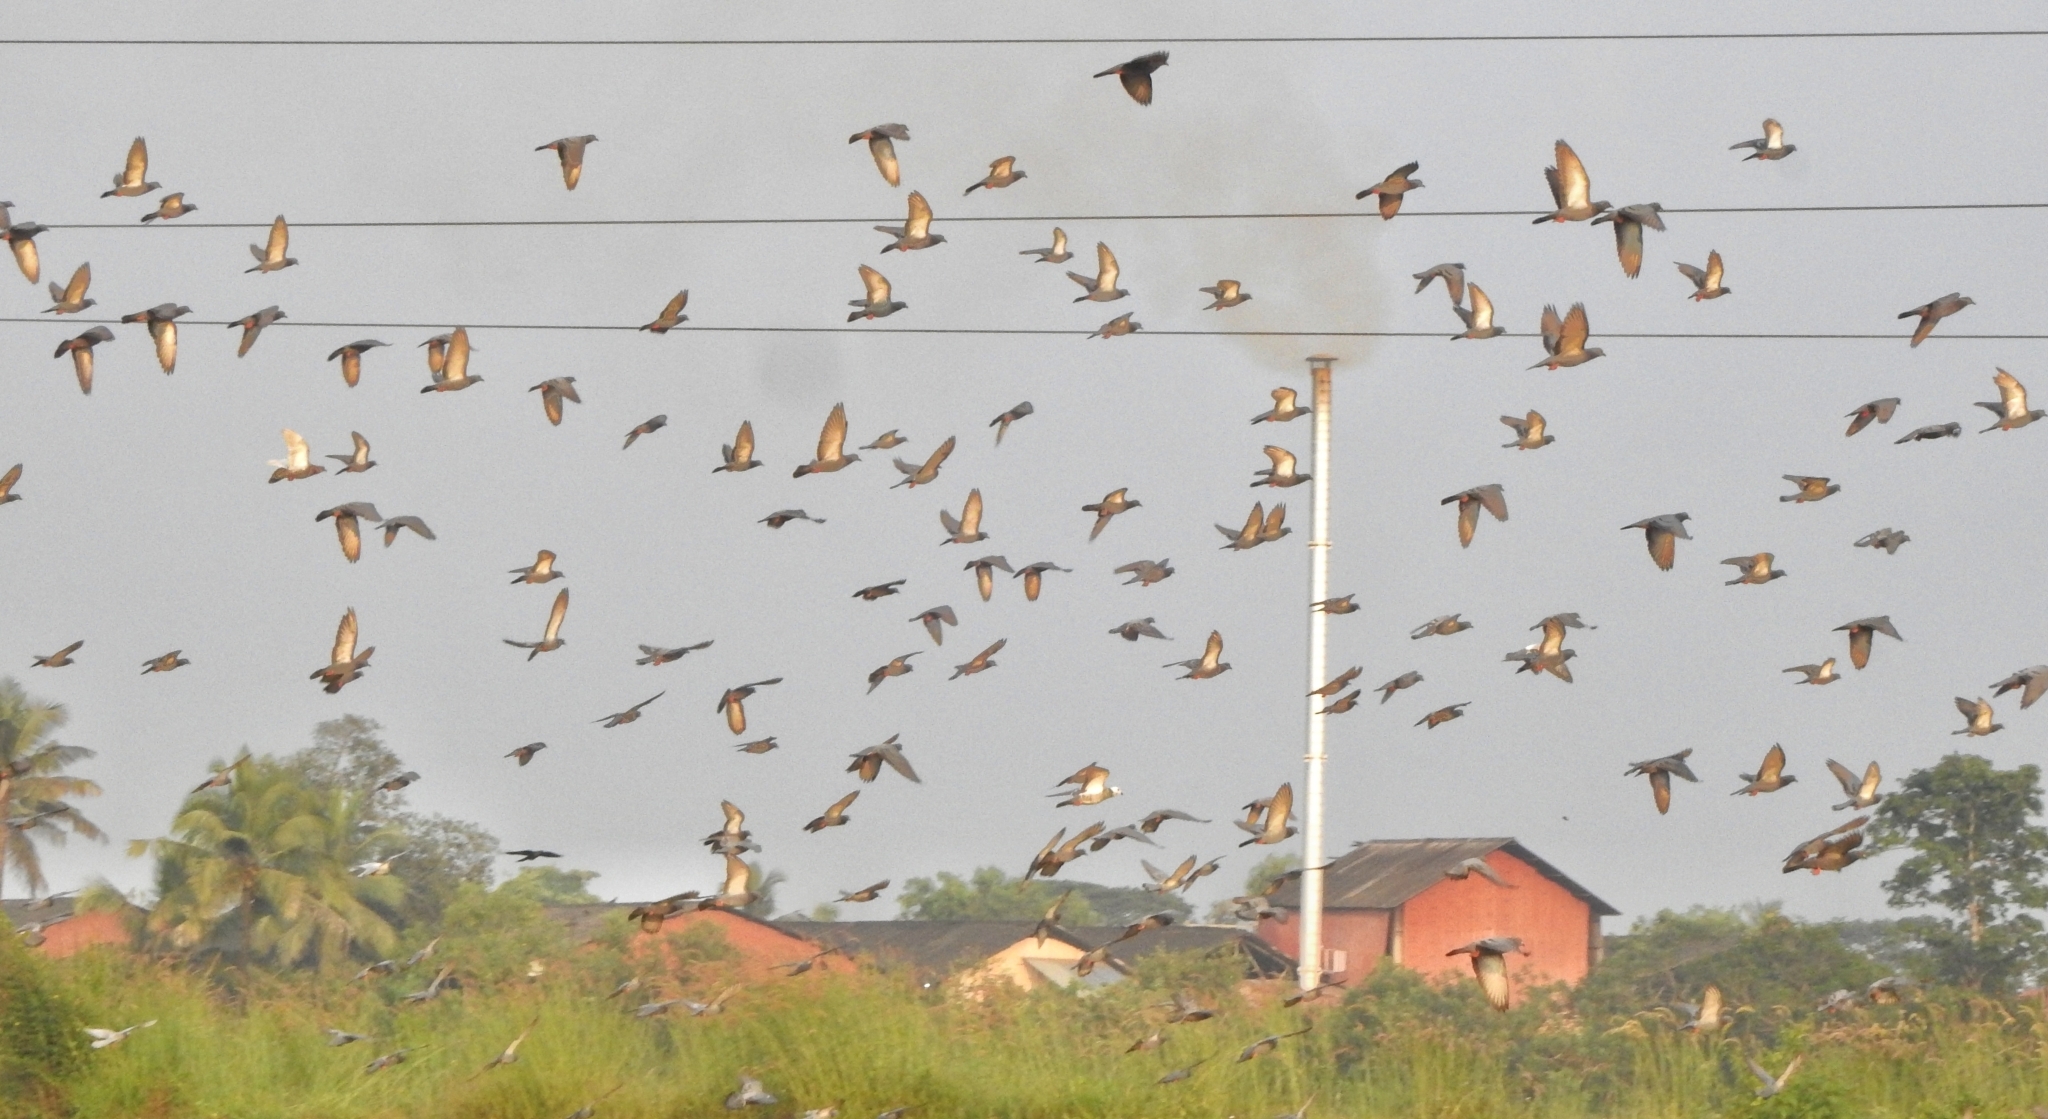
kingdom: Animalia
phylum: Chordata
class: Aves
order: Columbiformes
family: Columbidae
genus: Columba
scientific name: Columba livia
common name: Rock pigeon
